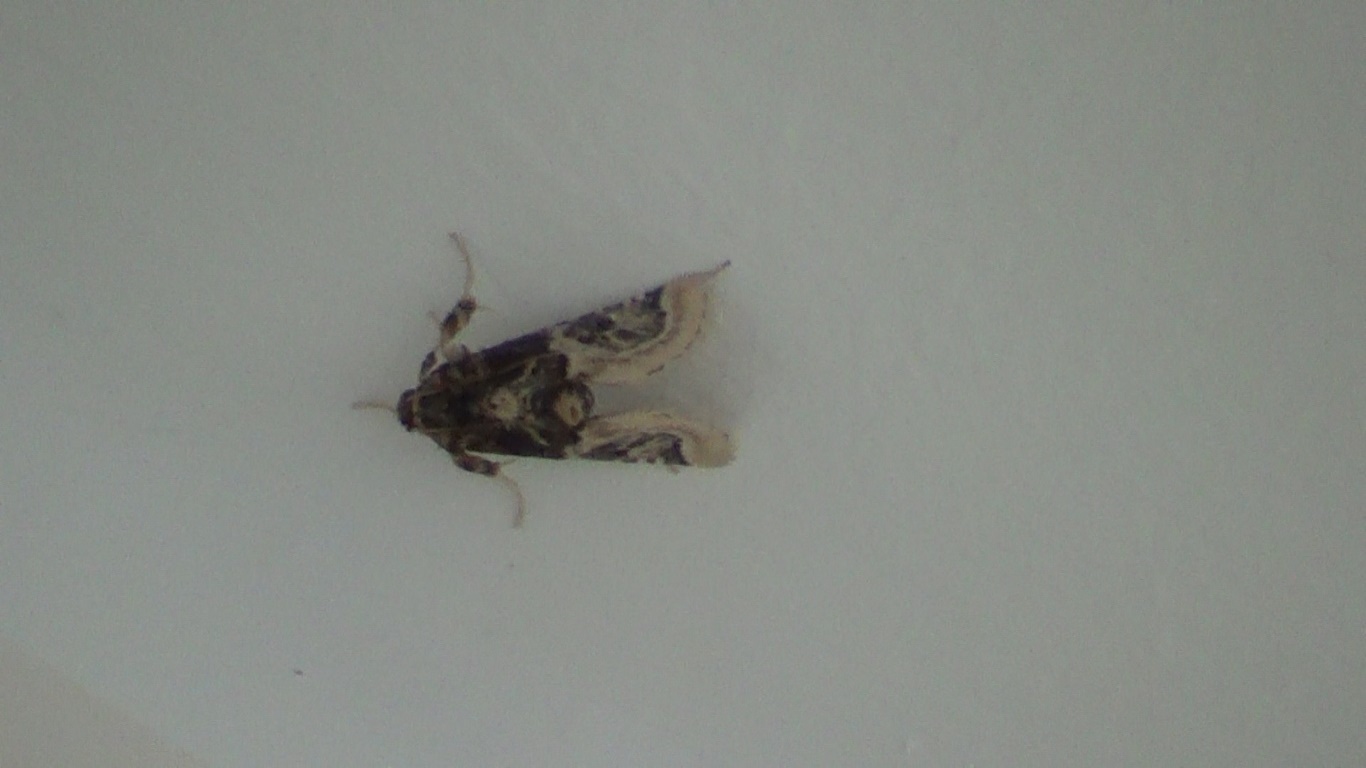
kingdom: Animalia
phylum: Arthropoda
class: Insecta
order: Lepidoptera
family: Pyralidae
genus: Loryma
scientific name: Loryma egregialis
